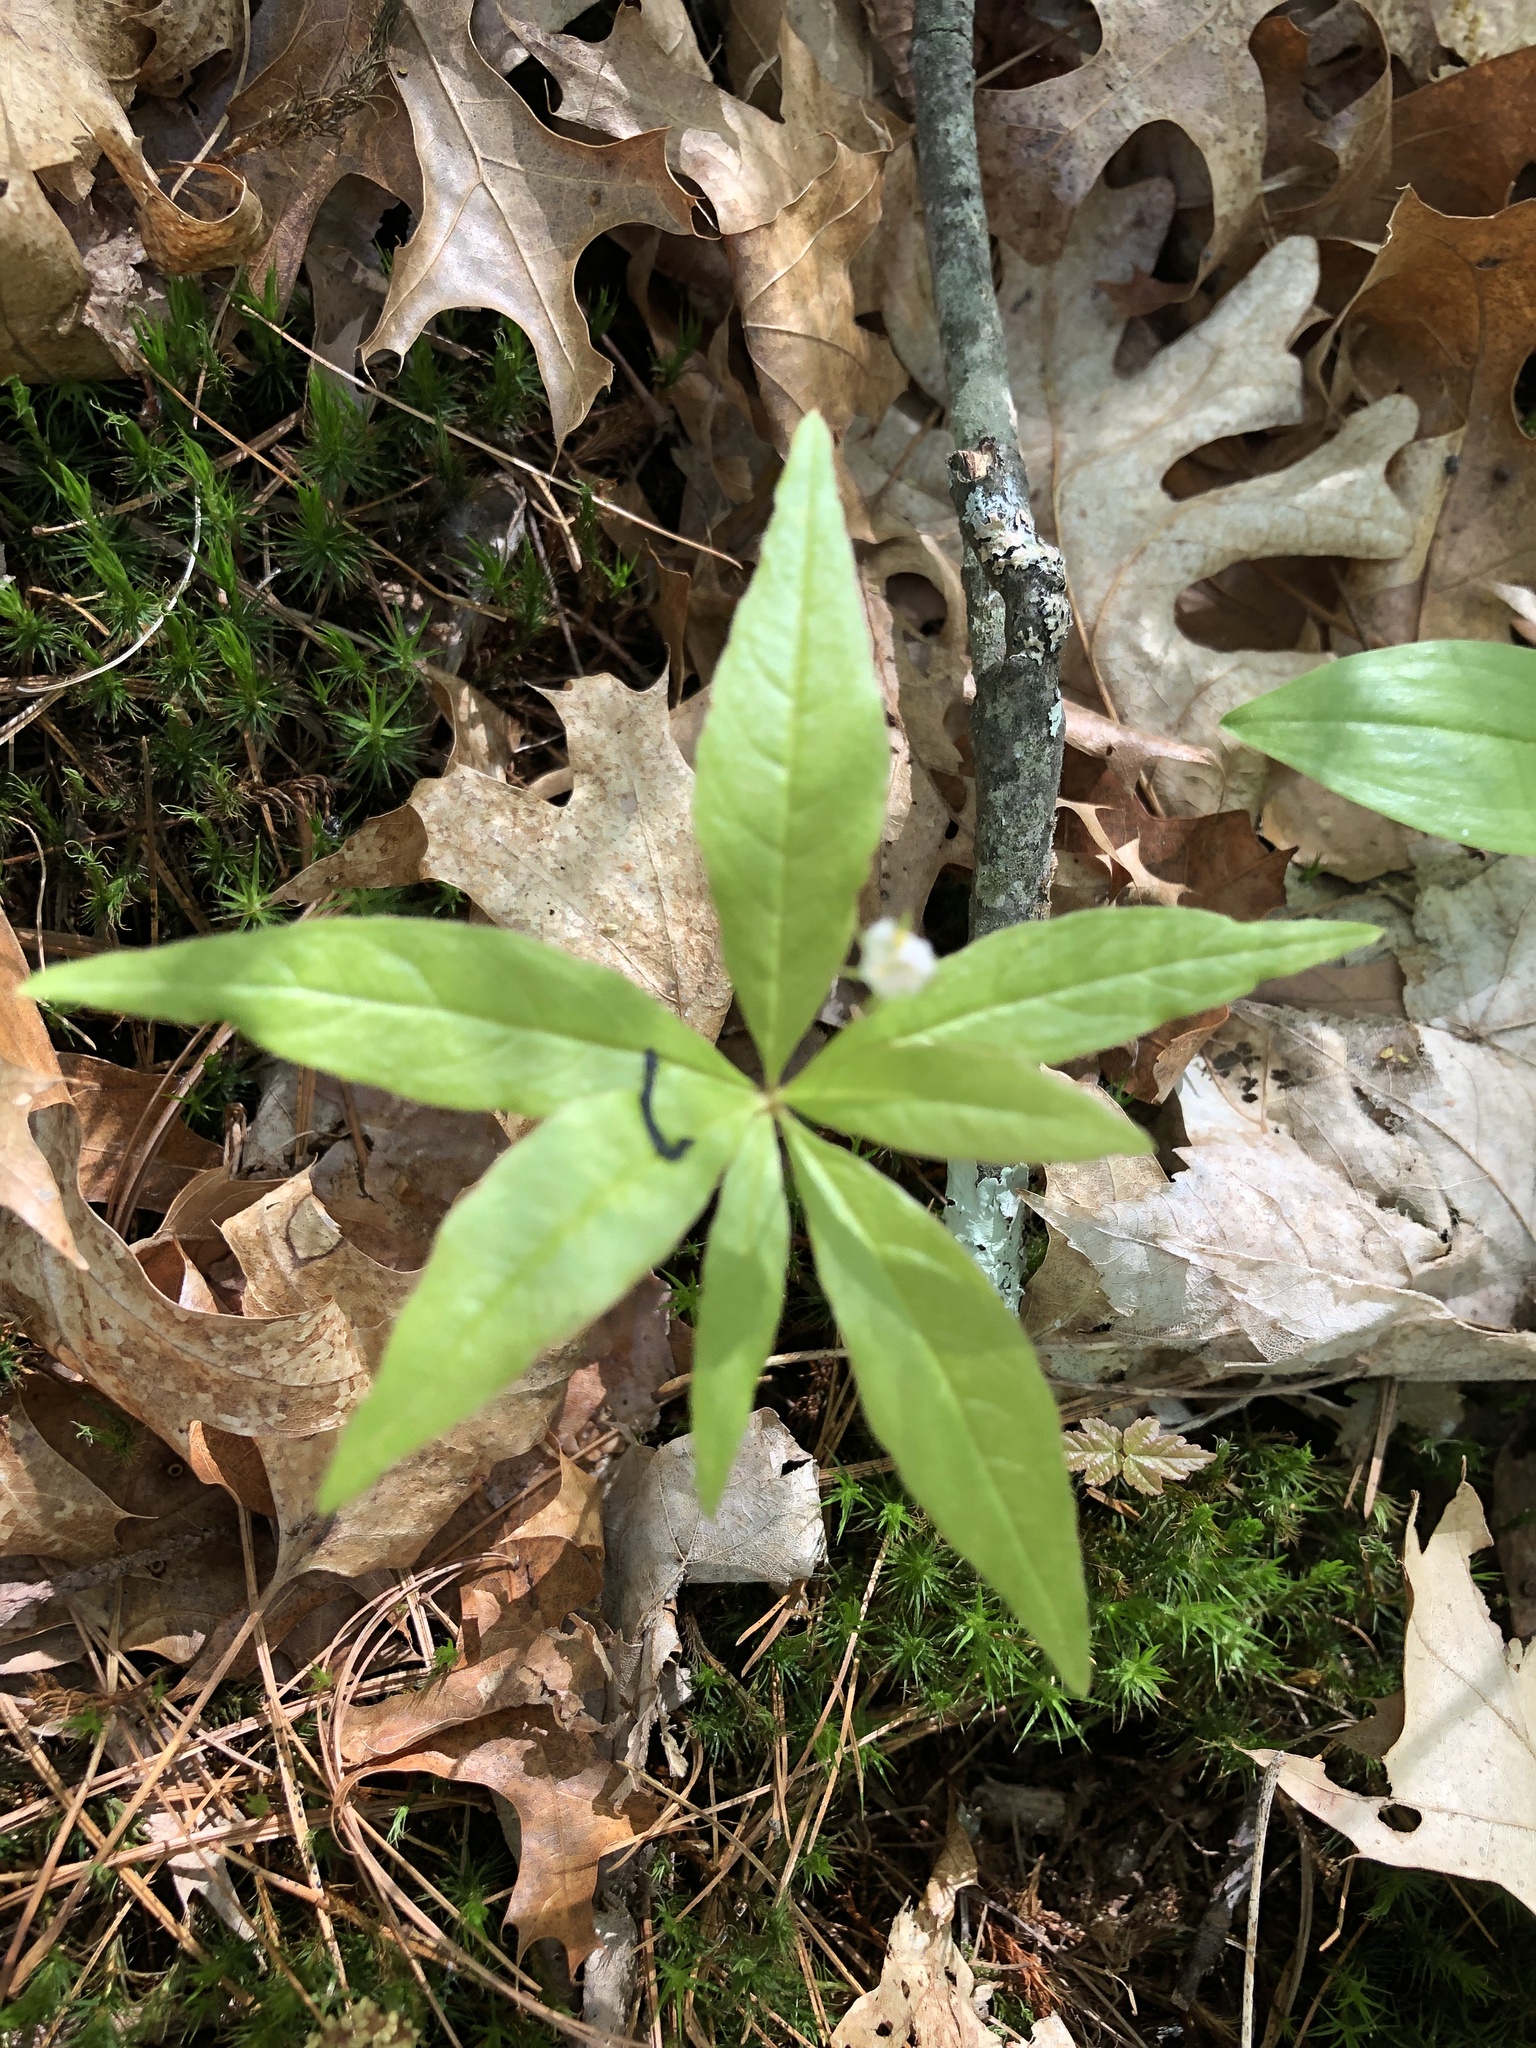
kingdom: Plantae
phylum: Tracheophyta
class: Magnoliopsida
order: Ericales
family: Primulaceae
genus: Lysimachia
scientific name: Lysimachia borealis
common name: American starflower
